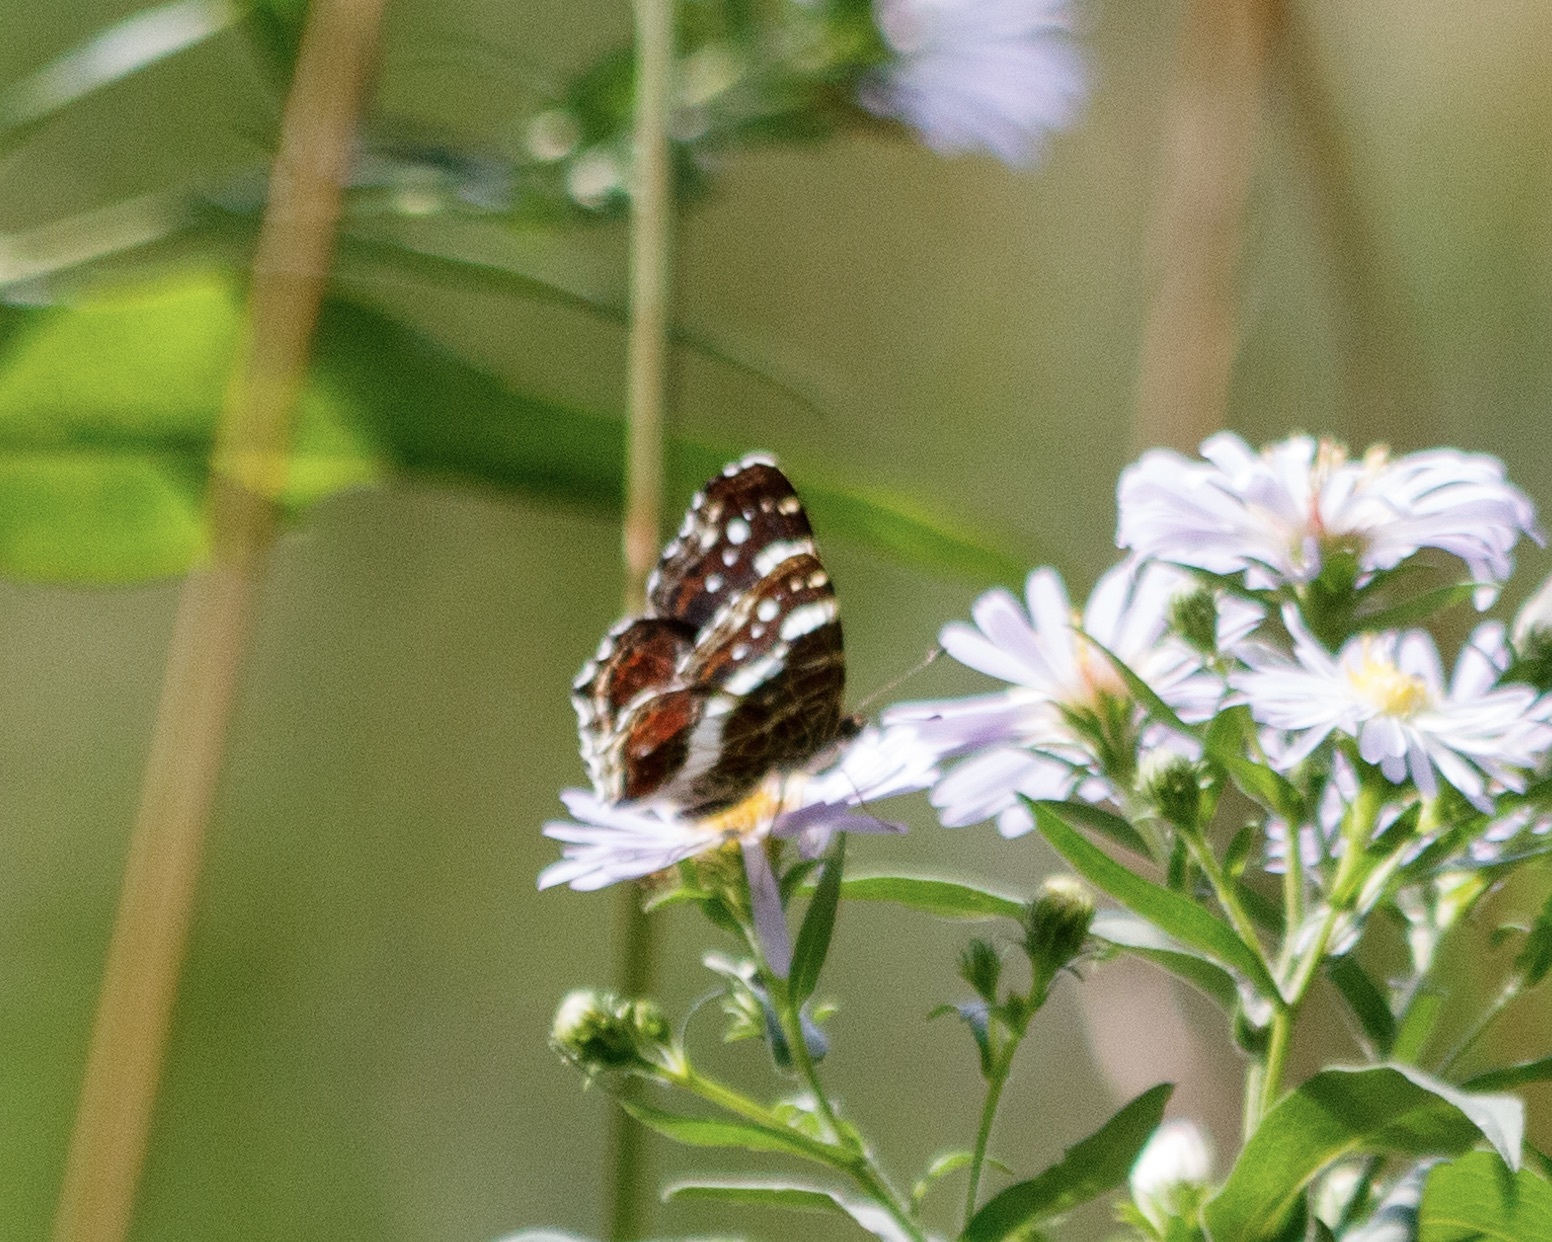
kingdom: Animalia
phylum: Arthropoda
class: Insecta
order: Lepidoptera
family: Nymphalidae
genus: Araschnia
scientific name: Araschnia levana
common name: Map butterfly
